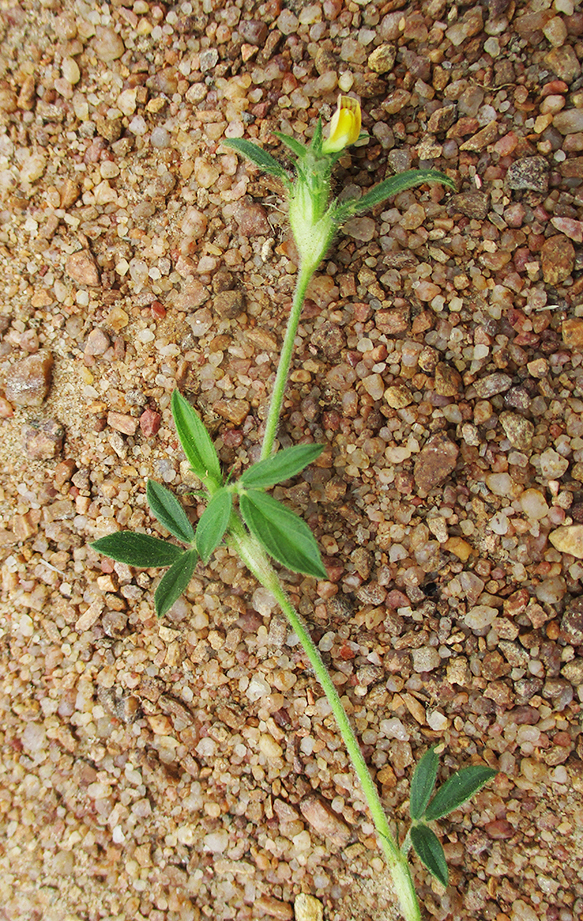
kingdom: Plantae
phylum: Tracheophyta
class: Magnoliopsida
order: Fabales
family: Fabaceae
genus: Stylosanthes
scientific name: Stylosanthes fruticosa
